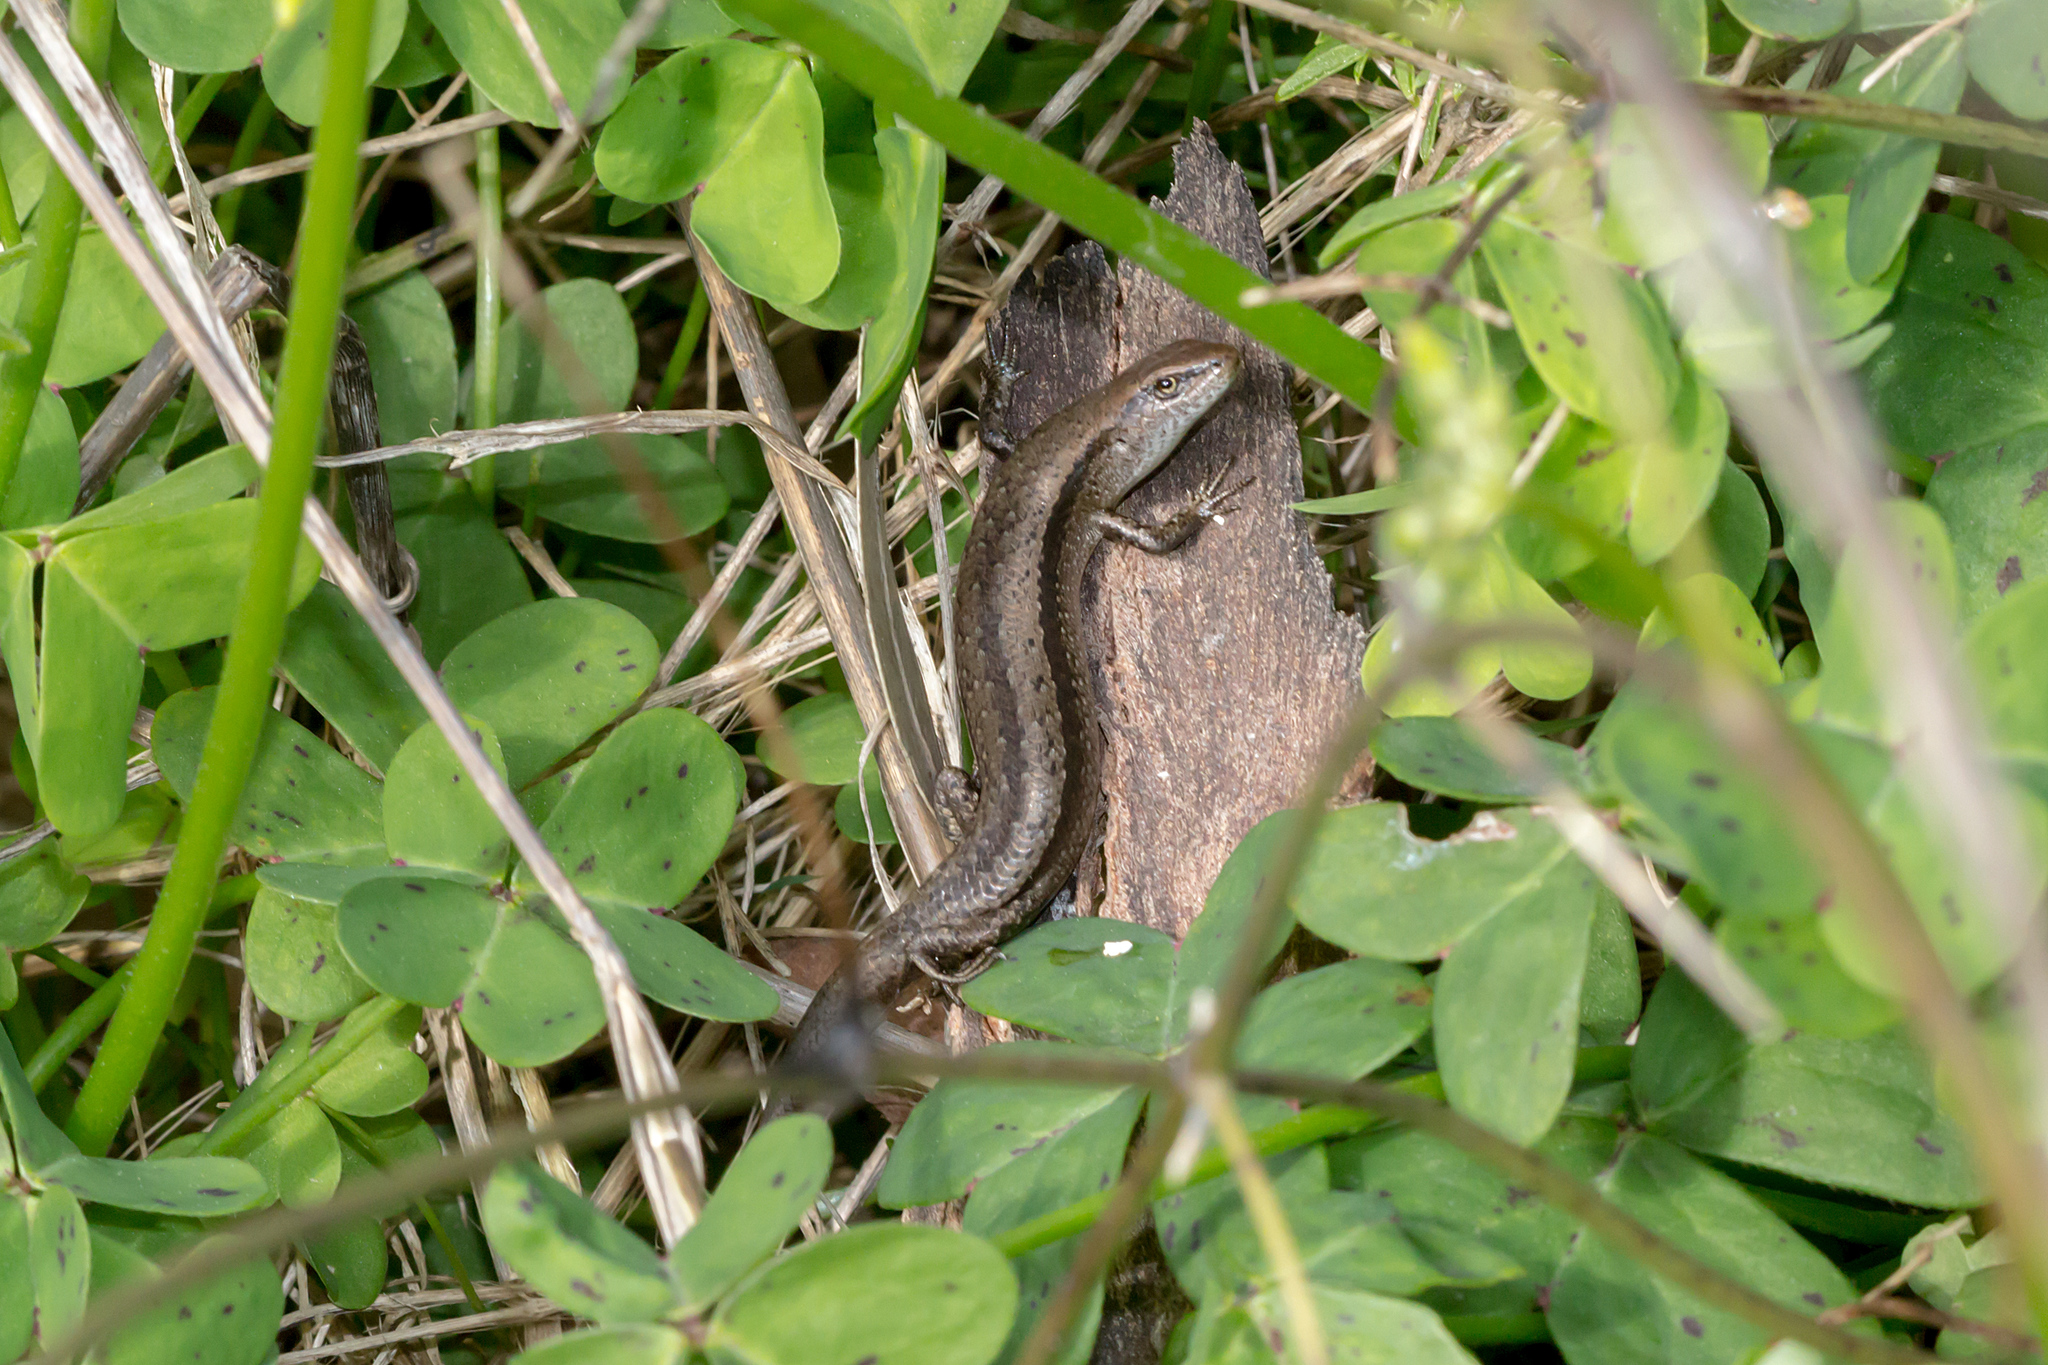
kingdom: Animalia
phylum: Chordata
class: Squamata
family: Scincidae
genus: Lampropholis
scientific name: Lampropholis guichenoti
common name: Garden skink
